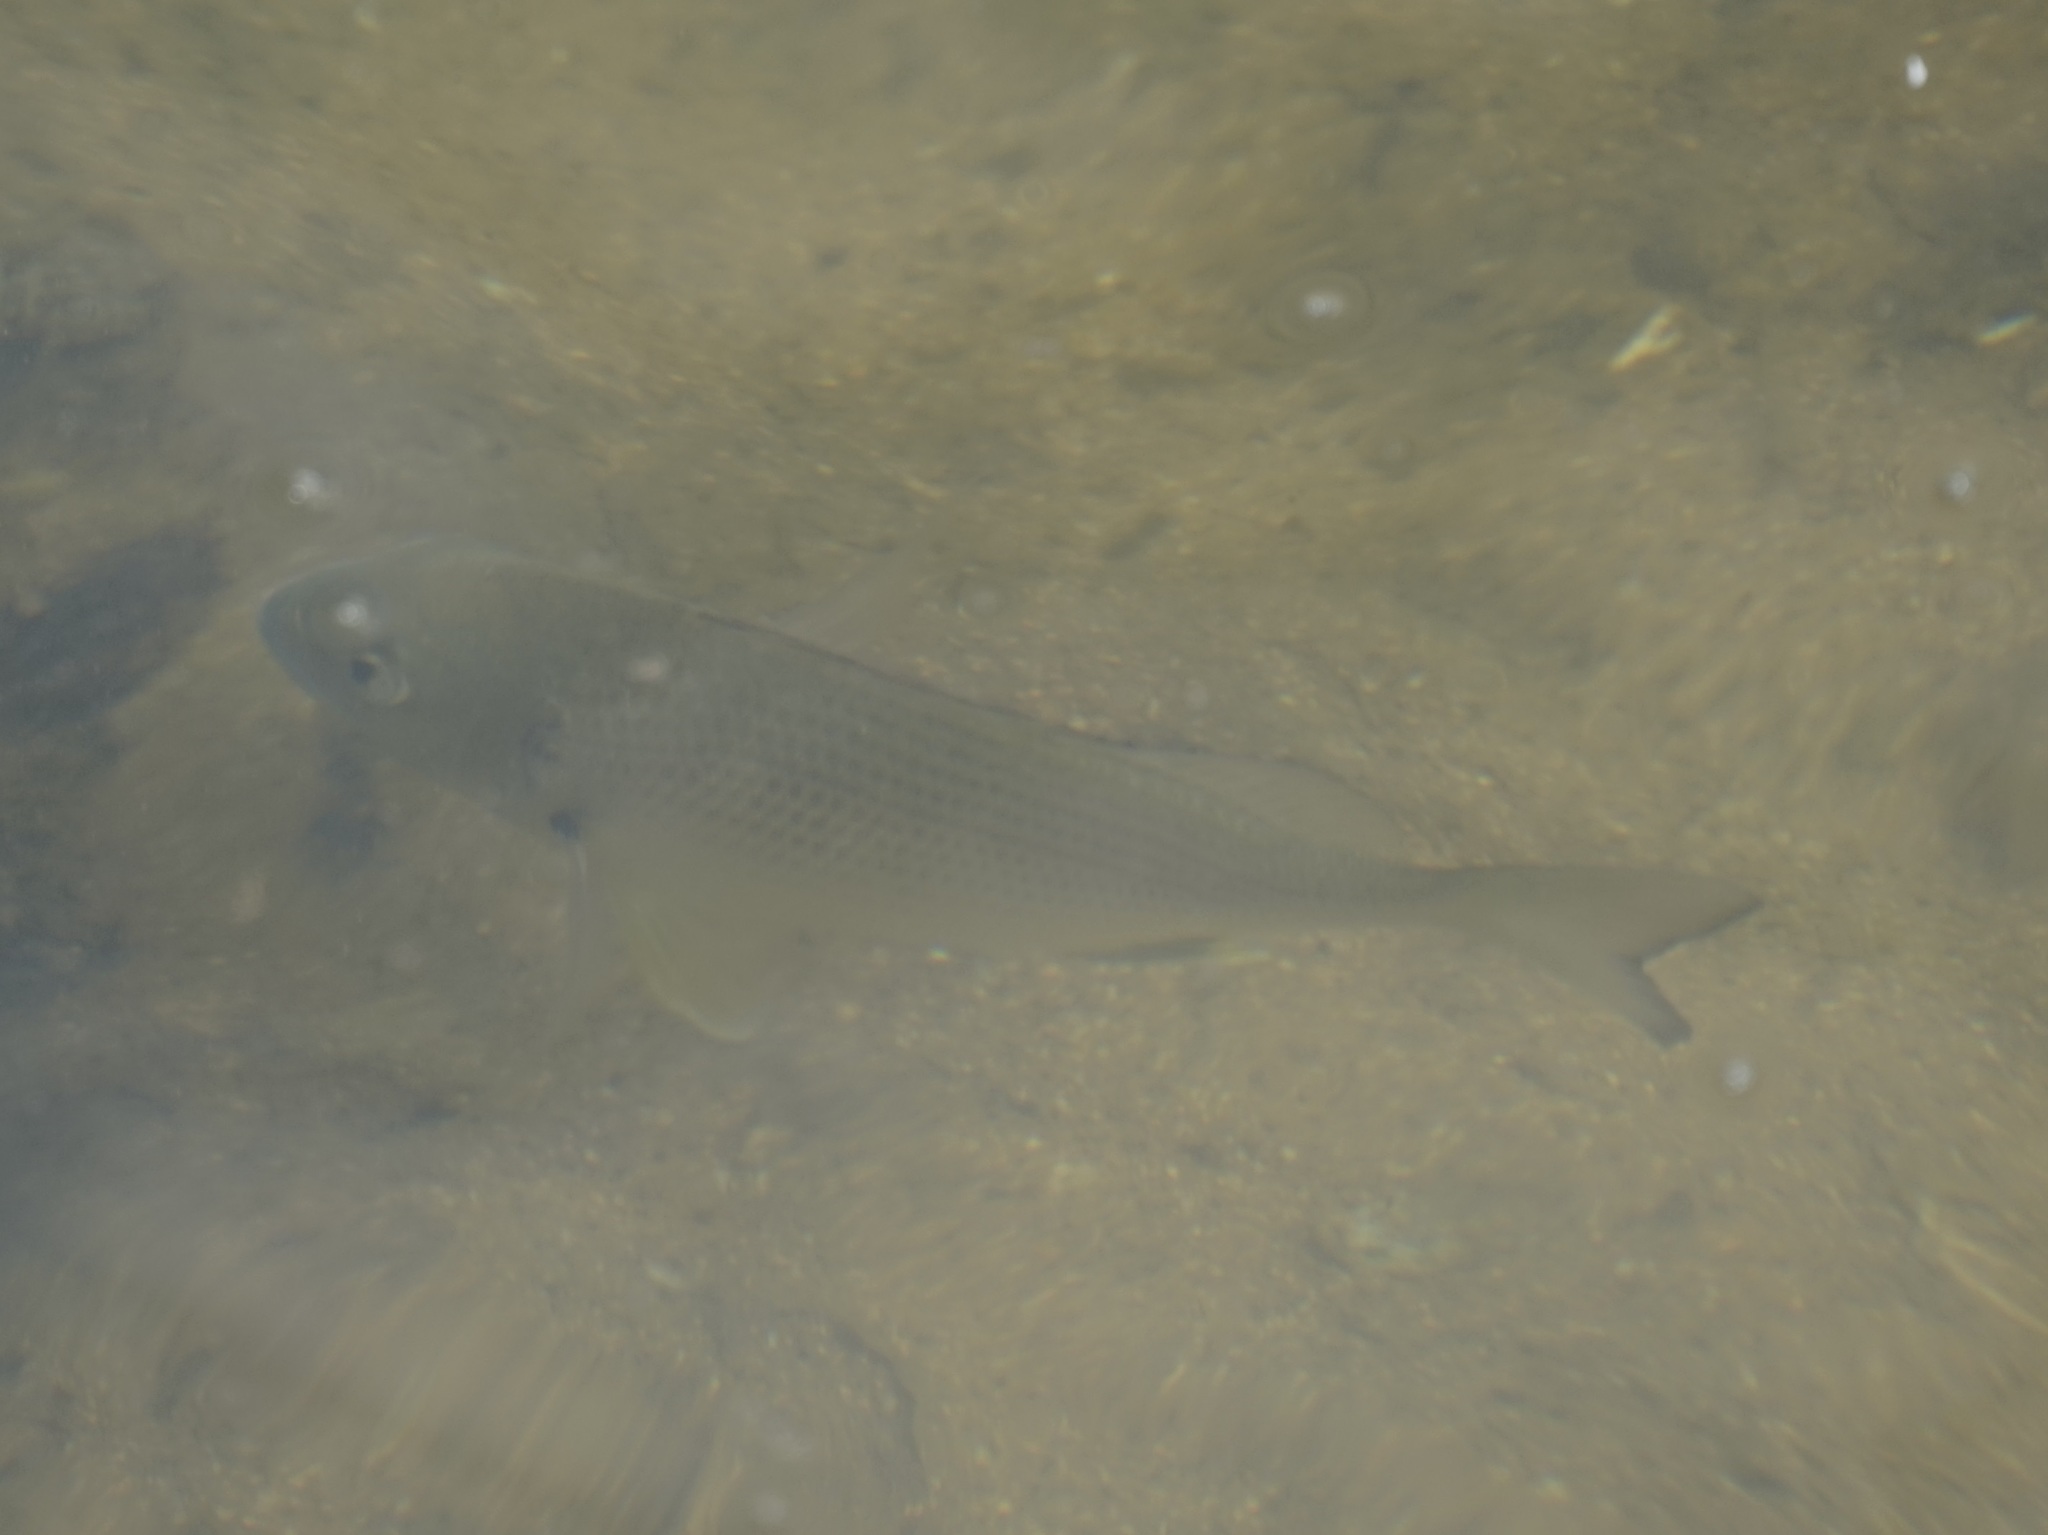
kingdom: Animalia
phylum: Chordata
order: Perciformes
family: Sparidae
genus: Acanthopagrus
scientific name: Acanthopagrus australis
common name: Surf bream
